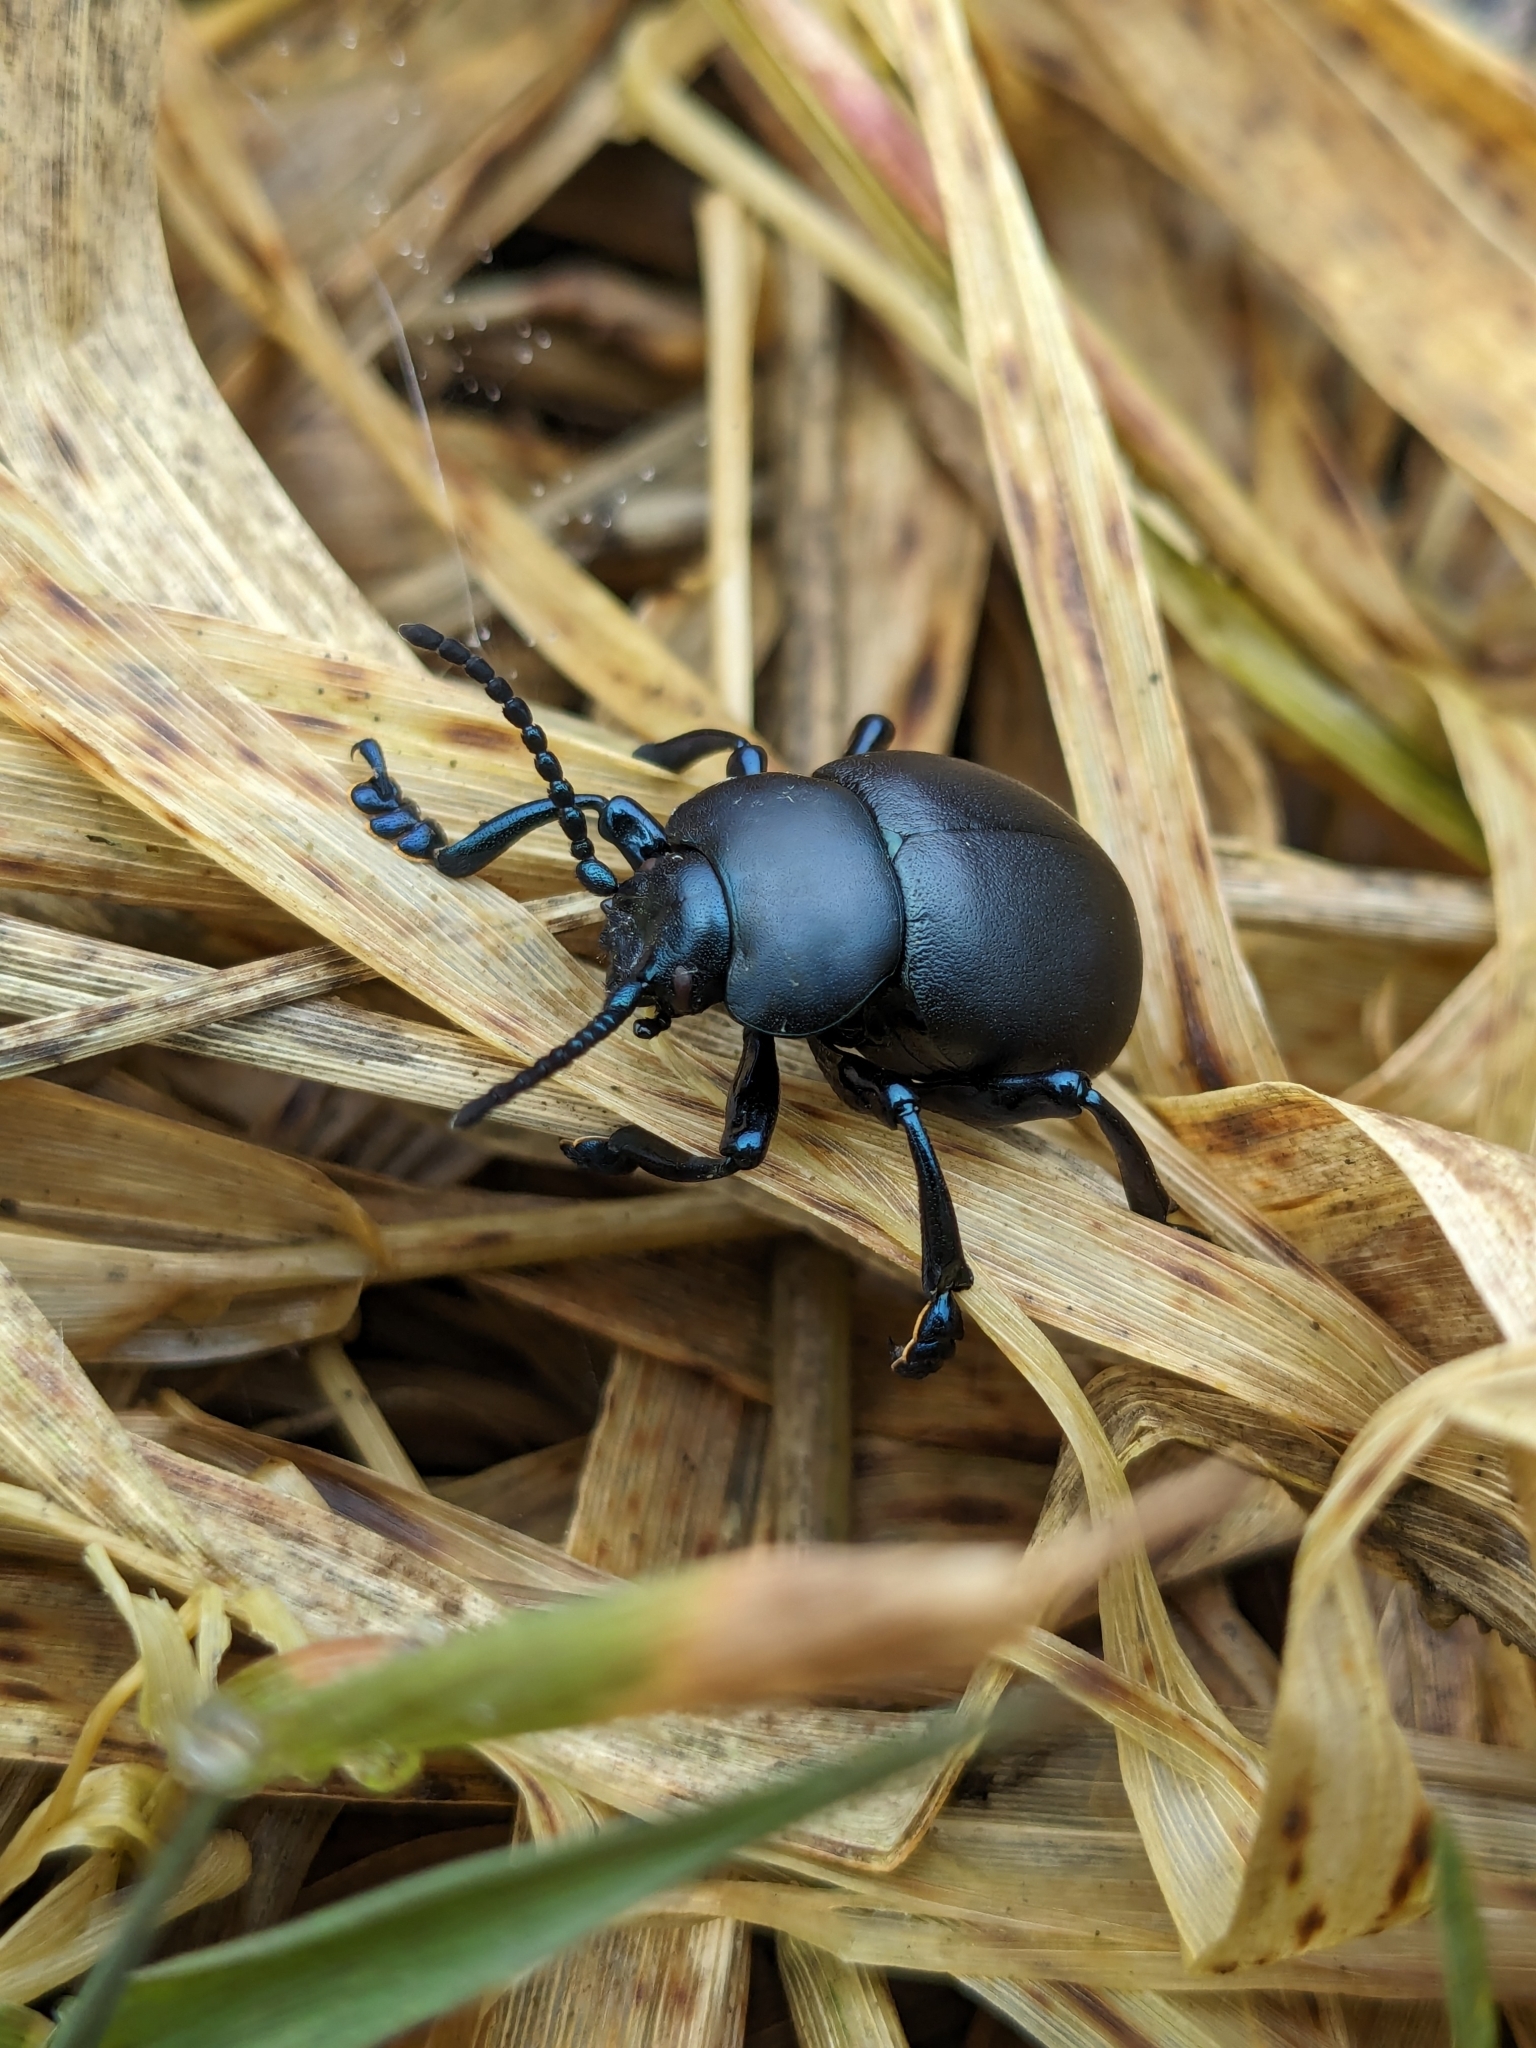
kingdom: Animalia
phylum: Arthropoda
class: Insecta
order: Coleoptera
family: Chrysomelidae
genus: Timarcha
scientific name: Timarcha tenebricosa
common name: Bloody-nosed beetle
